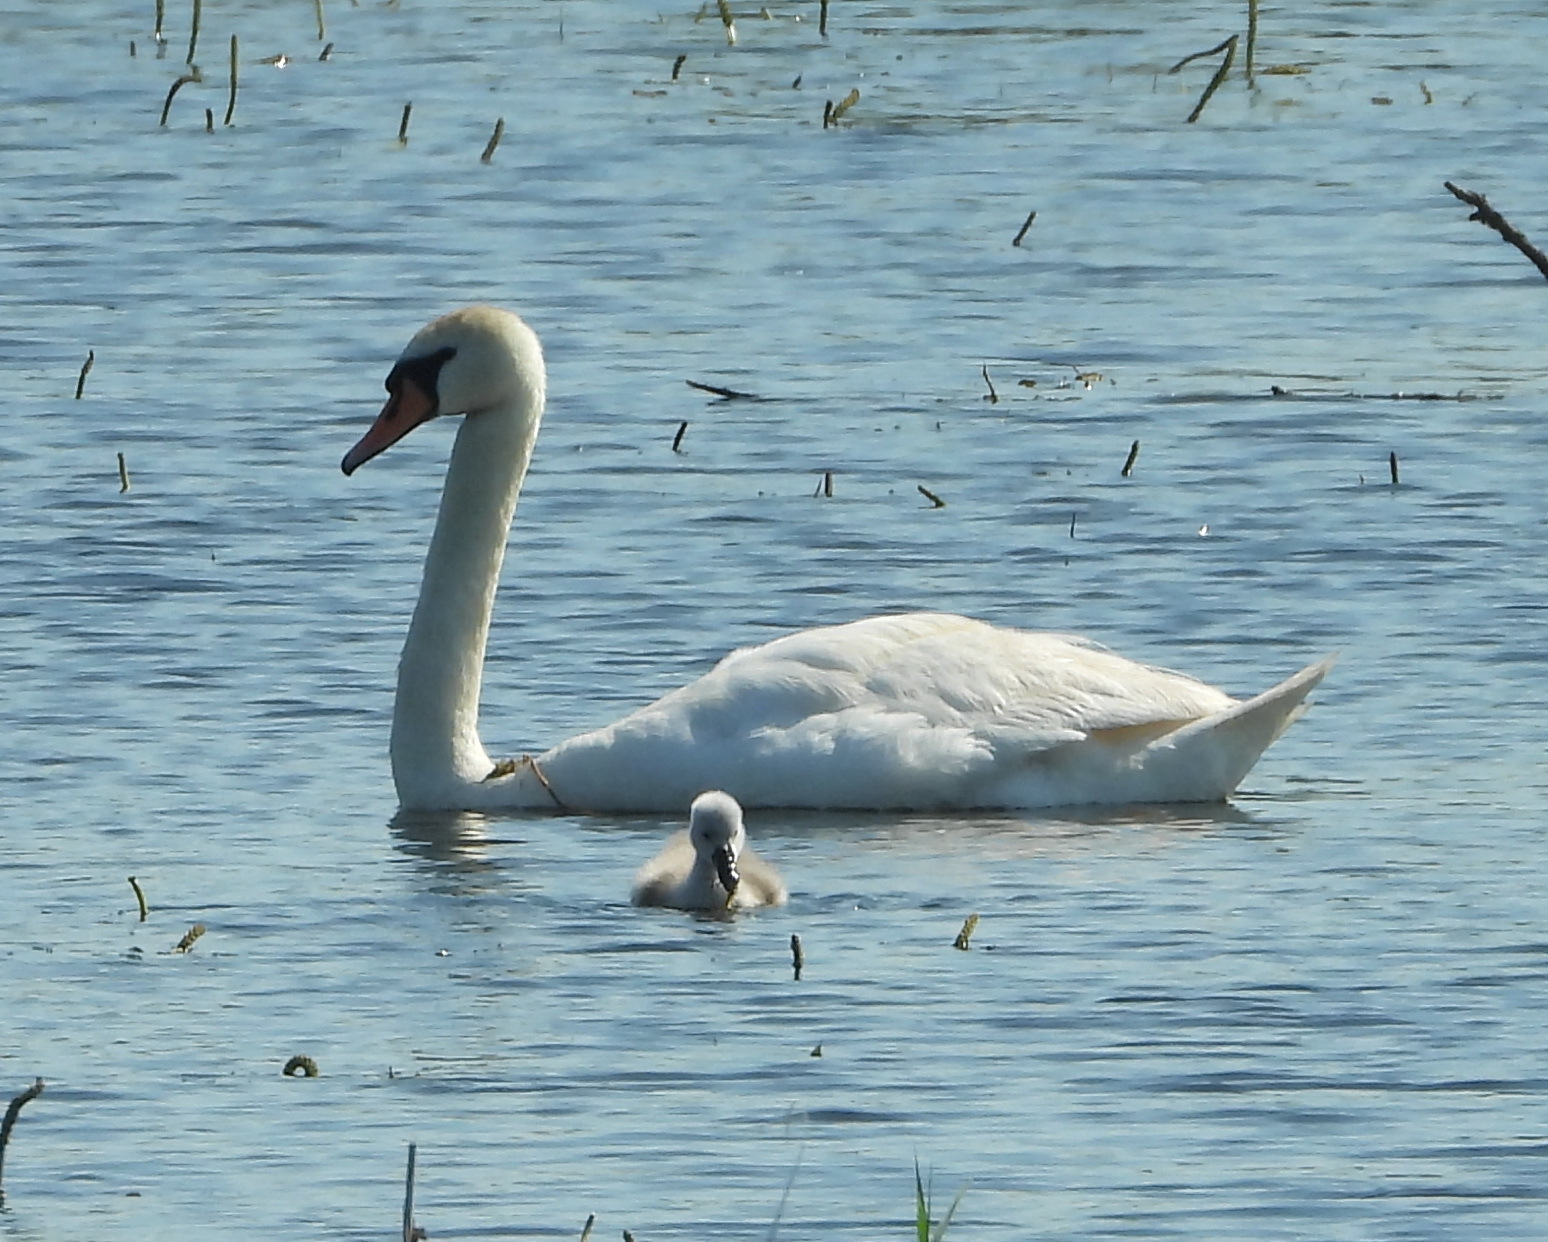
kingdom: Animalia
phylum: Chordata
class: Aves
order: Anseriformes
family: Anatidae
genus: Cygnus
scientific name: Cygnus olor
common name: Mute swan
